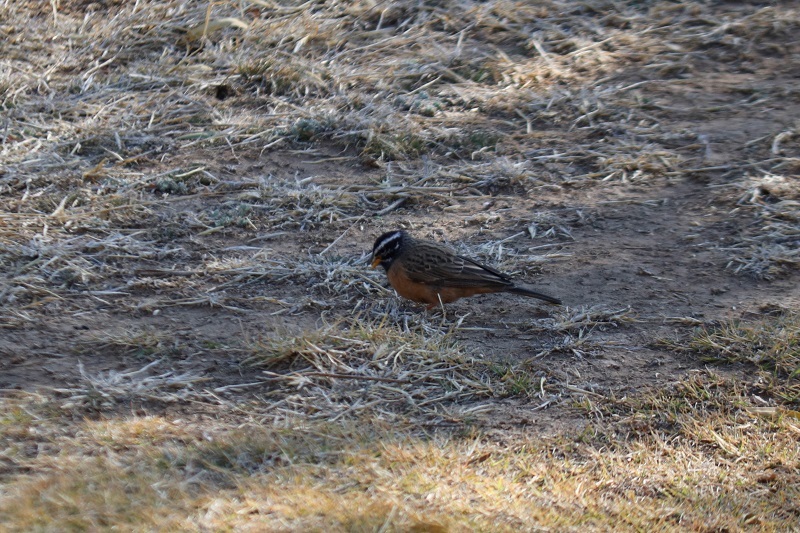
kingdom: Animalia
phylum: Chordata
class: Aves
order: Passeriformes
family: Emberizidae
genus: Emberiza
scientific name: Emberiza tahapisi
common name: Cinnamon-breasted bunting
